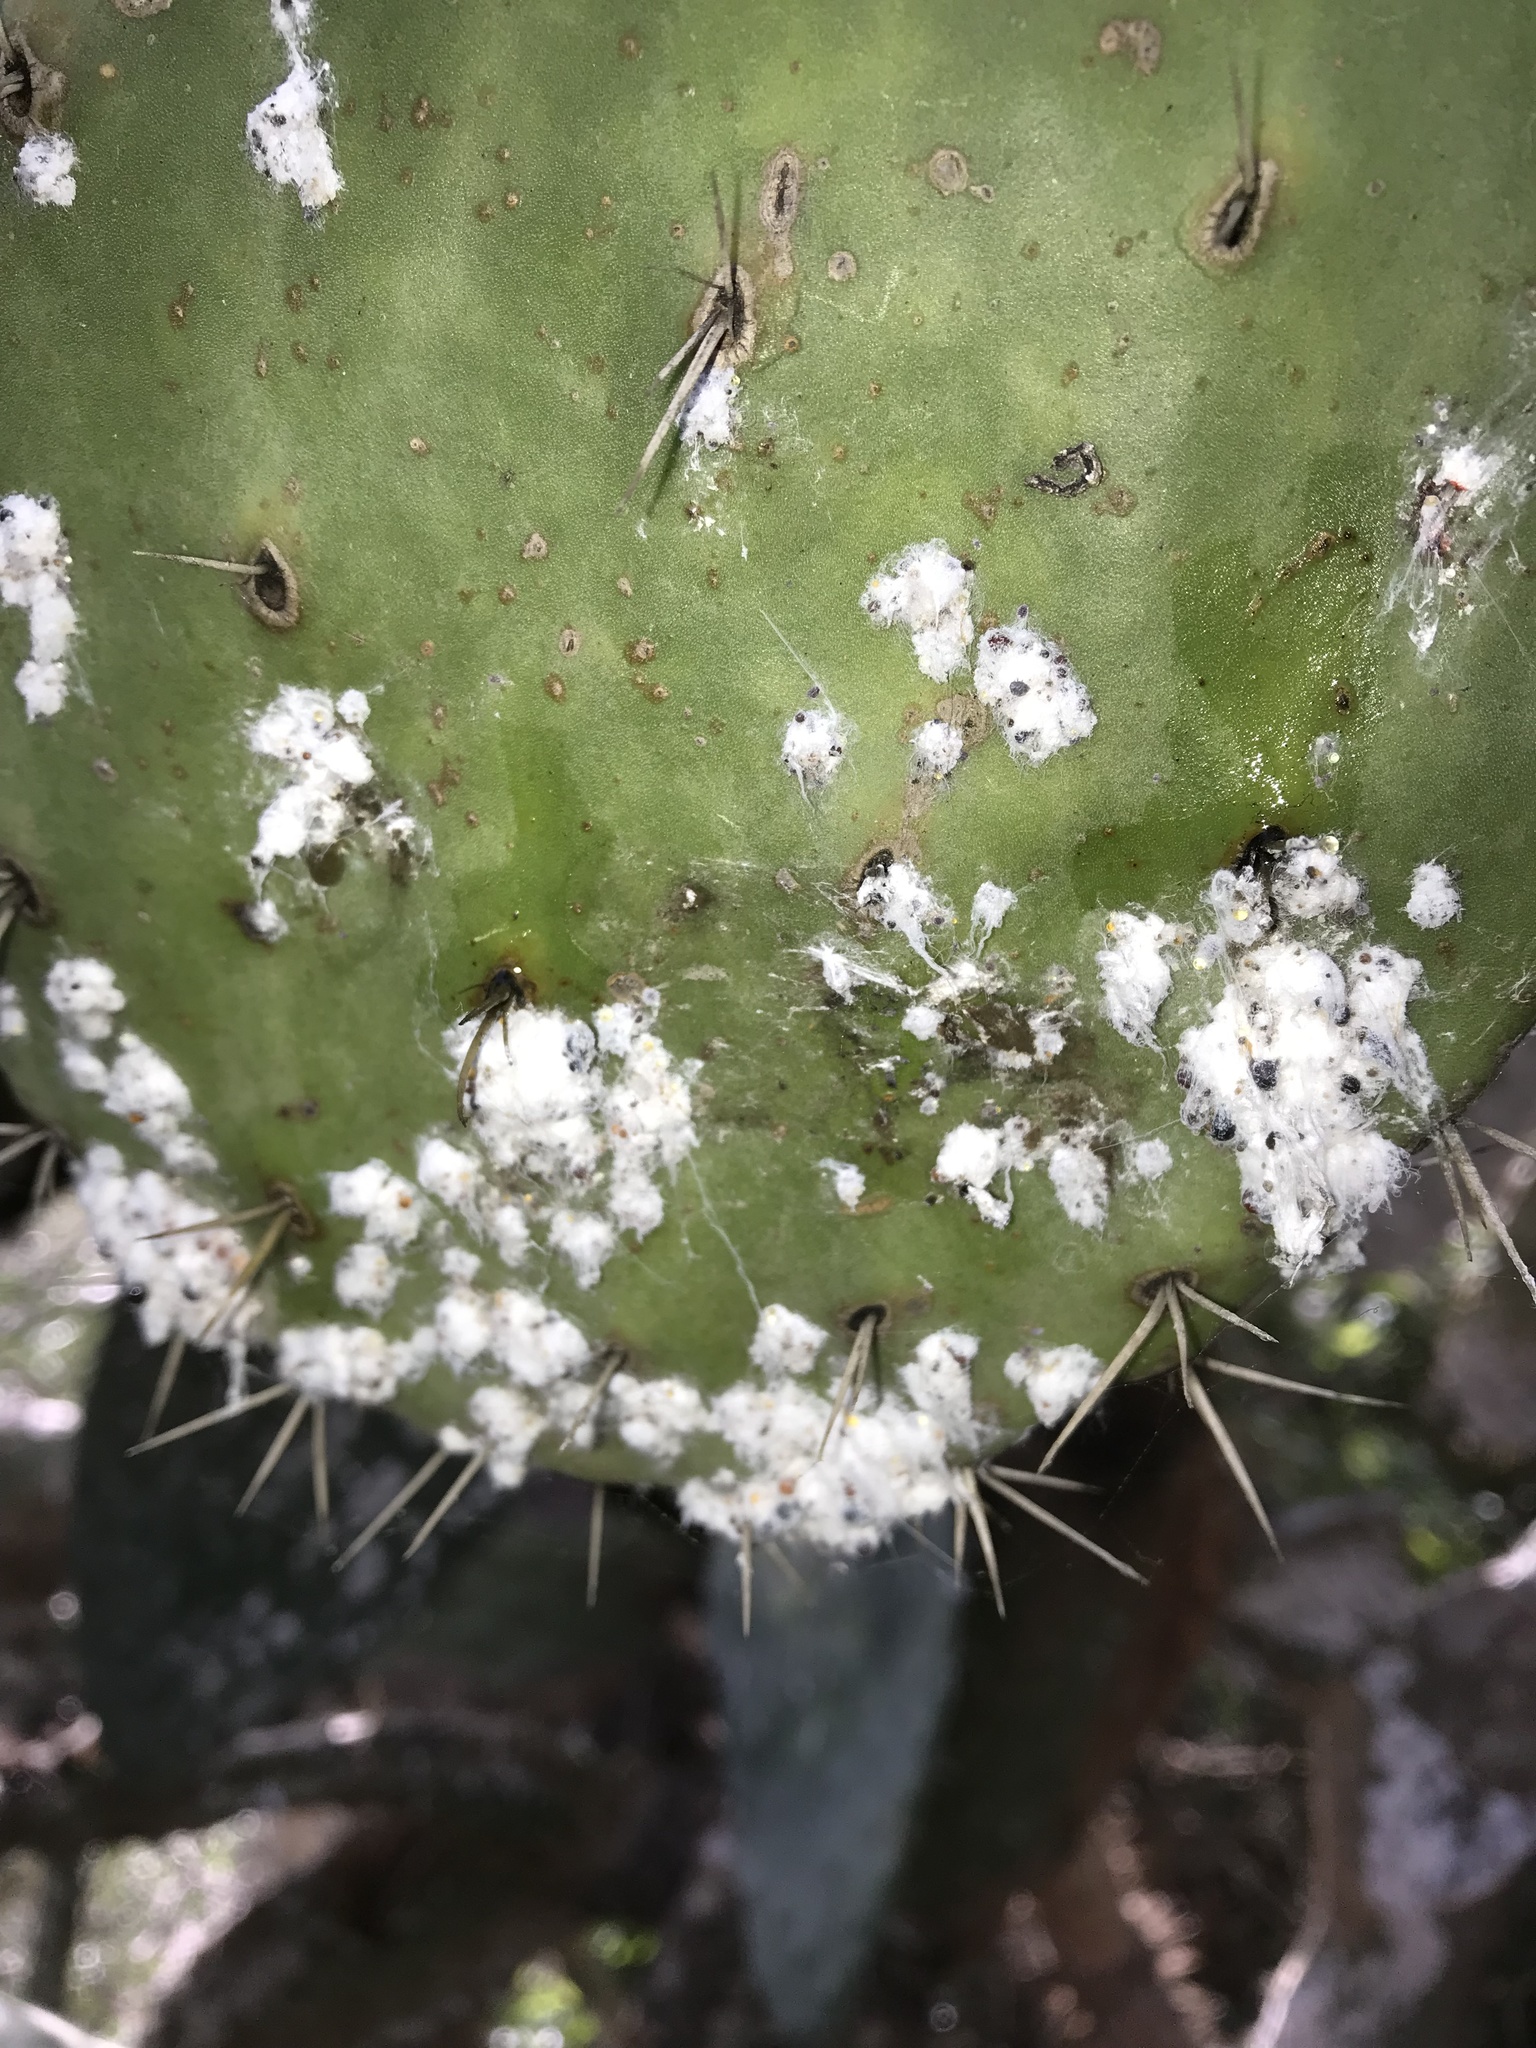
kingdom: Animalia
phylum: Arthropoda
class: Insecta
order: Hemiptera
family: Dactylopiidae
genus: Dactylopius
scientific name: Dactylopius opuntiae
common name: Opuntia cochineal scale
